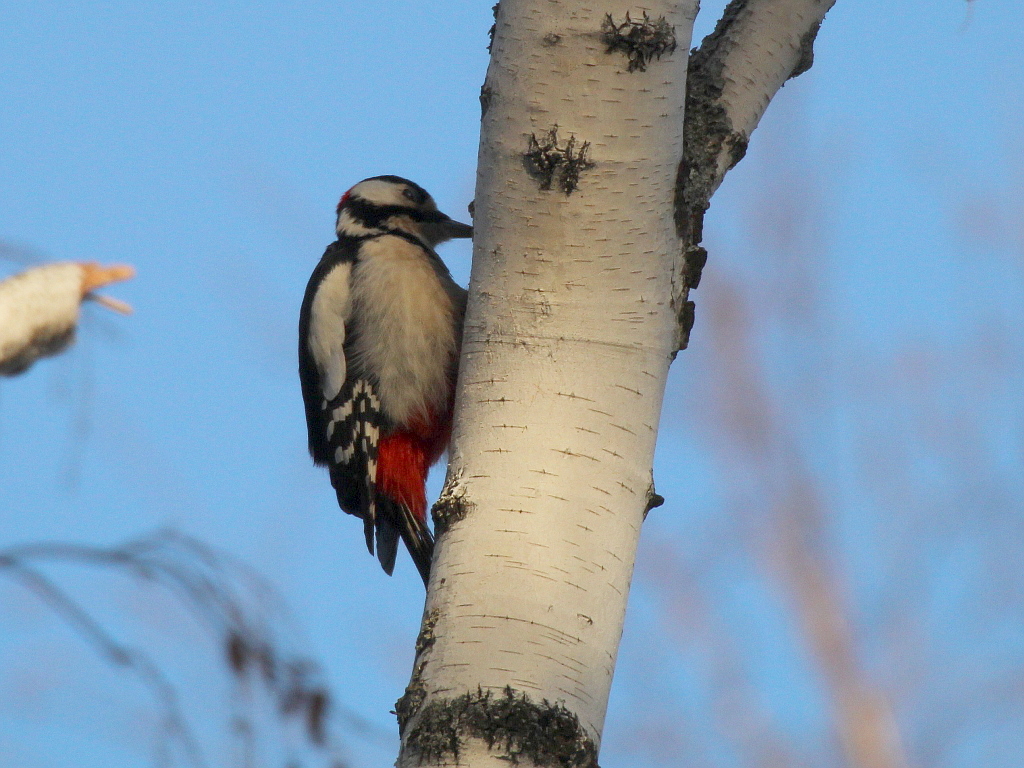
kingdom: Animalia
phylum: Chordata
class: Aves
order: Piciformes
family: Picidae
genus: Dendrocopos
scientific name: Dendrocopos major
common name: Great spotted woodpecker
